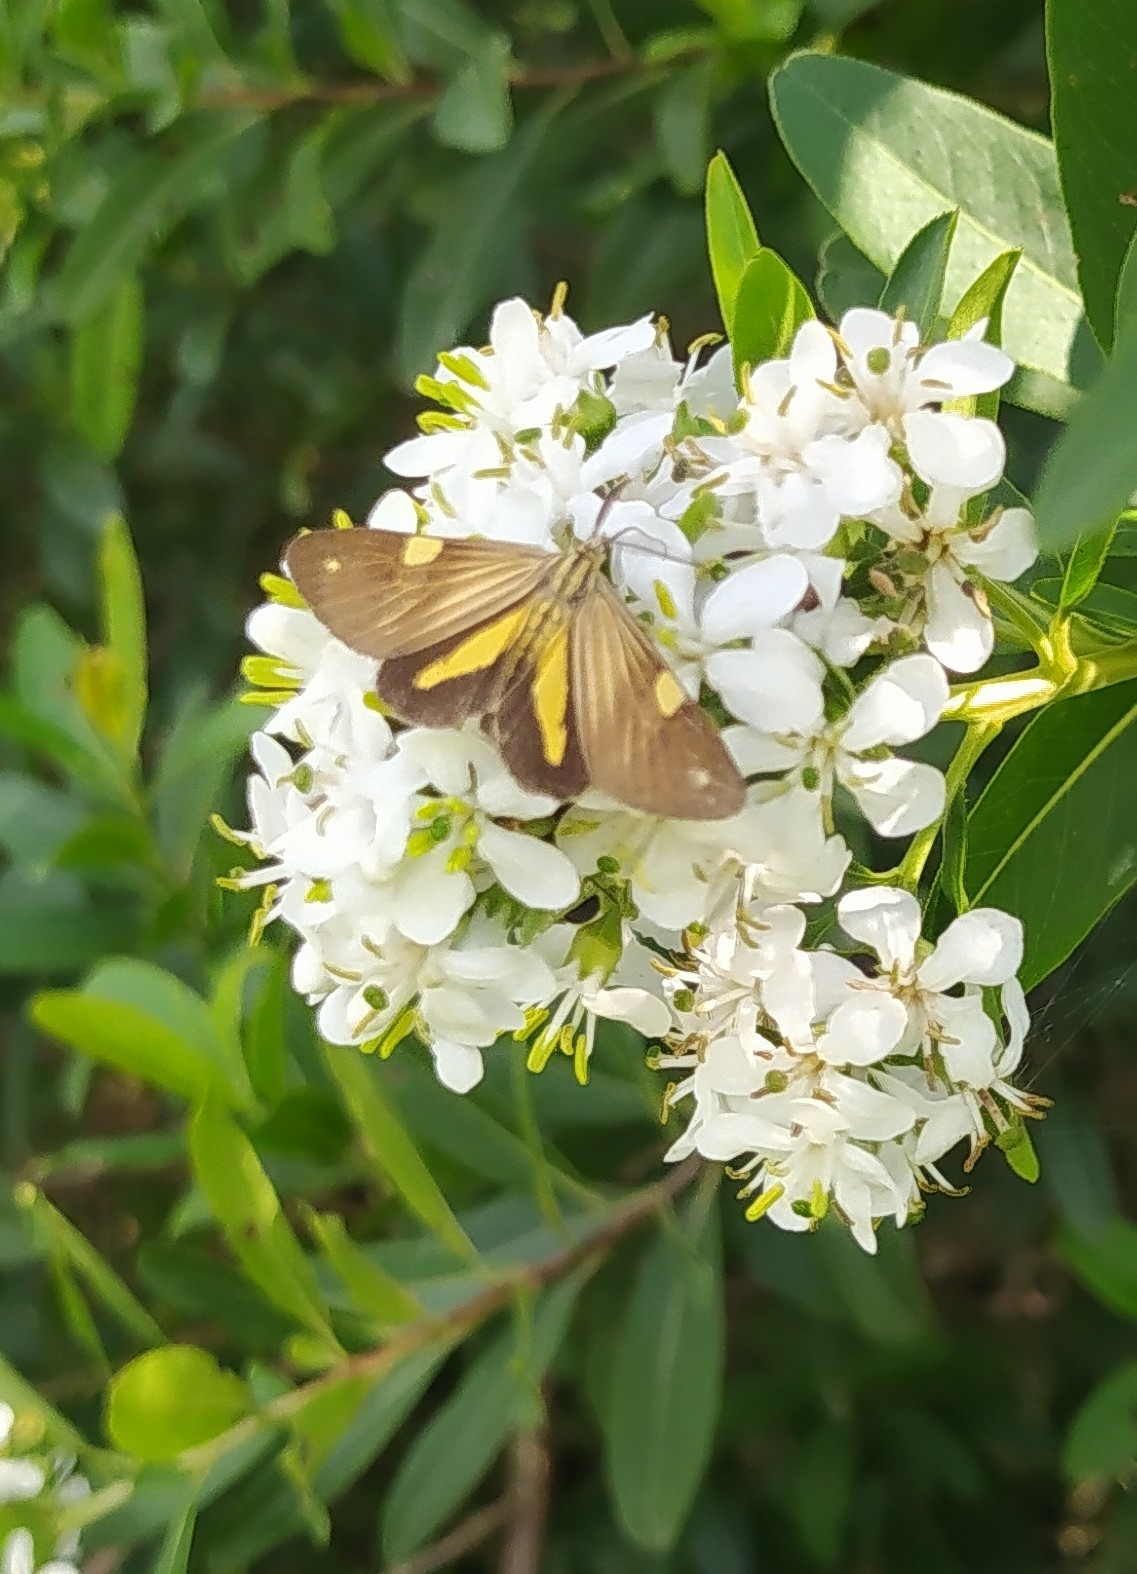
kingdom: Animalia
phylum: Arthropoda
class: Insecta
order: Lepidoptera
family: Notodontidae
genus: Phaeochlaena
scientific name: Phaeochlaena
